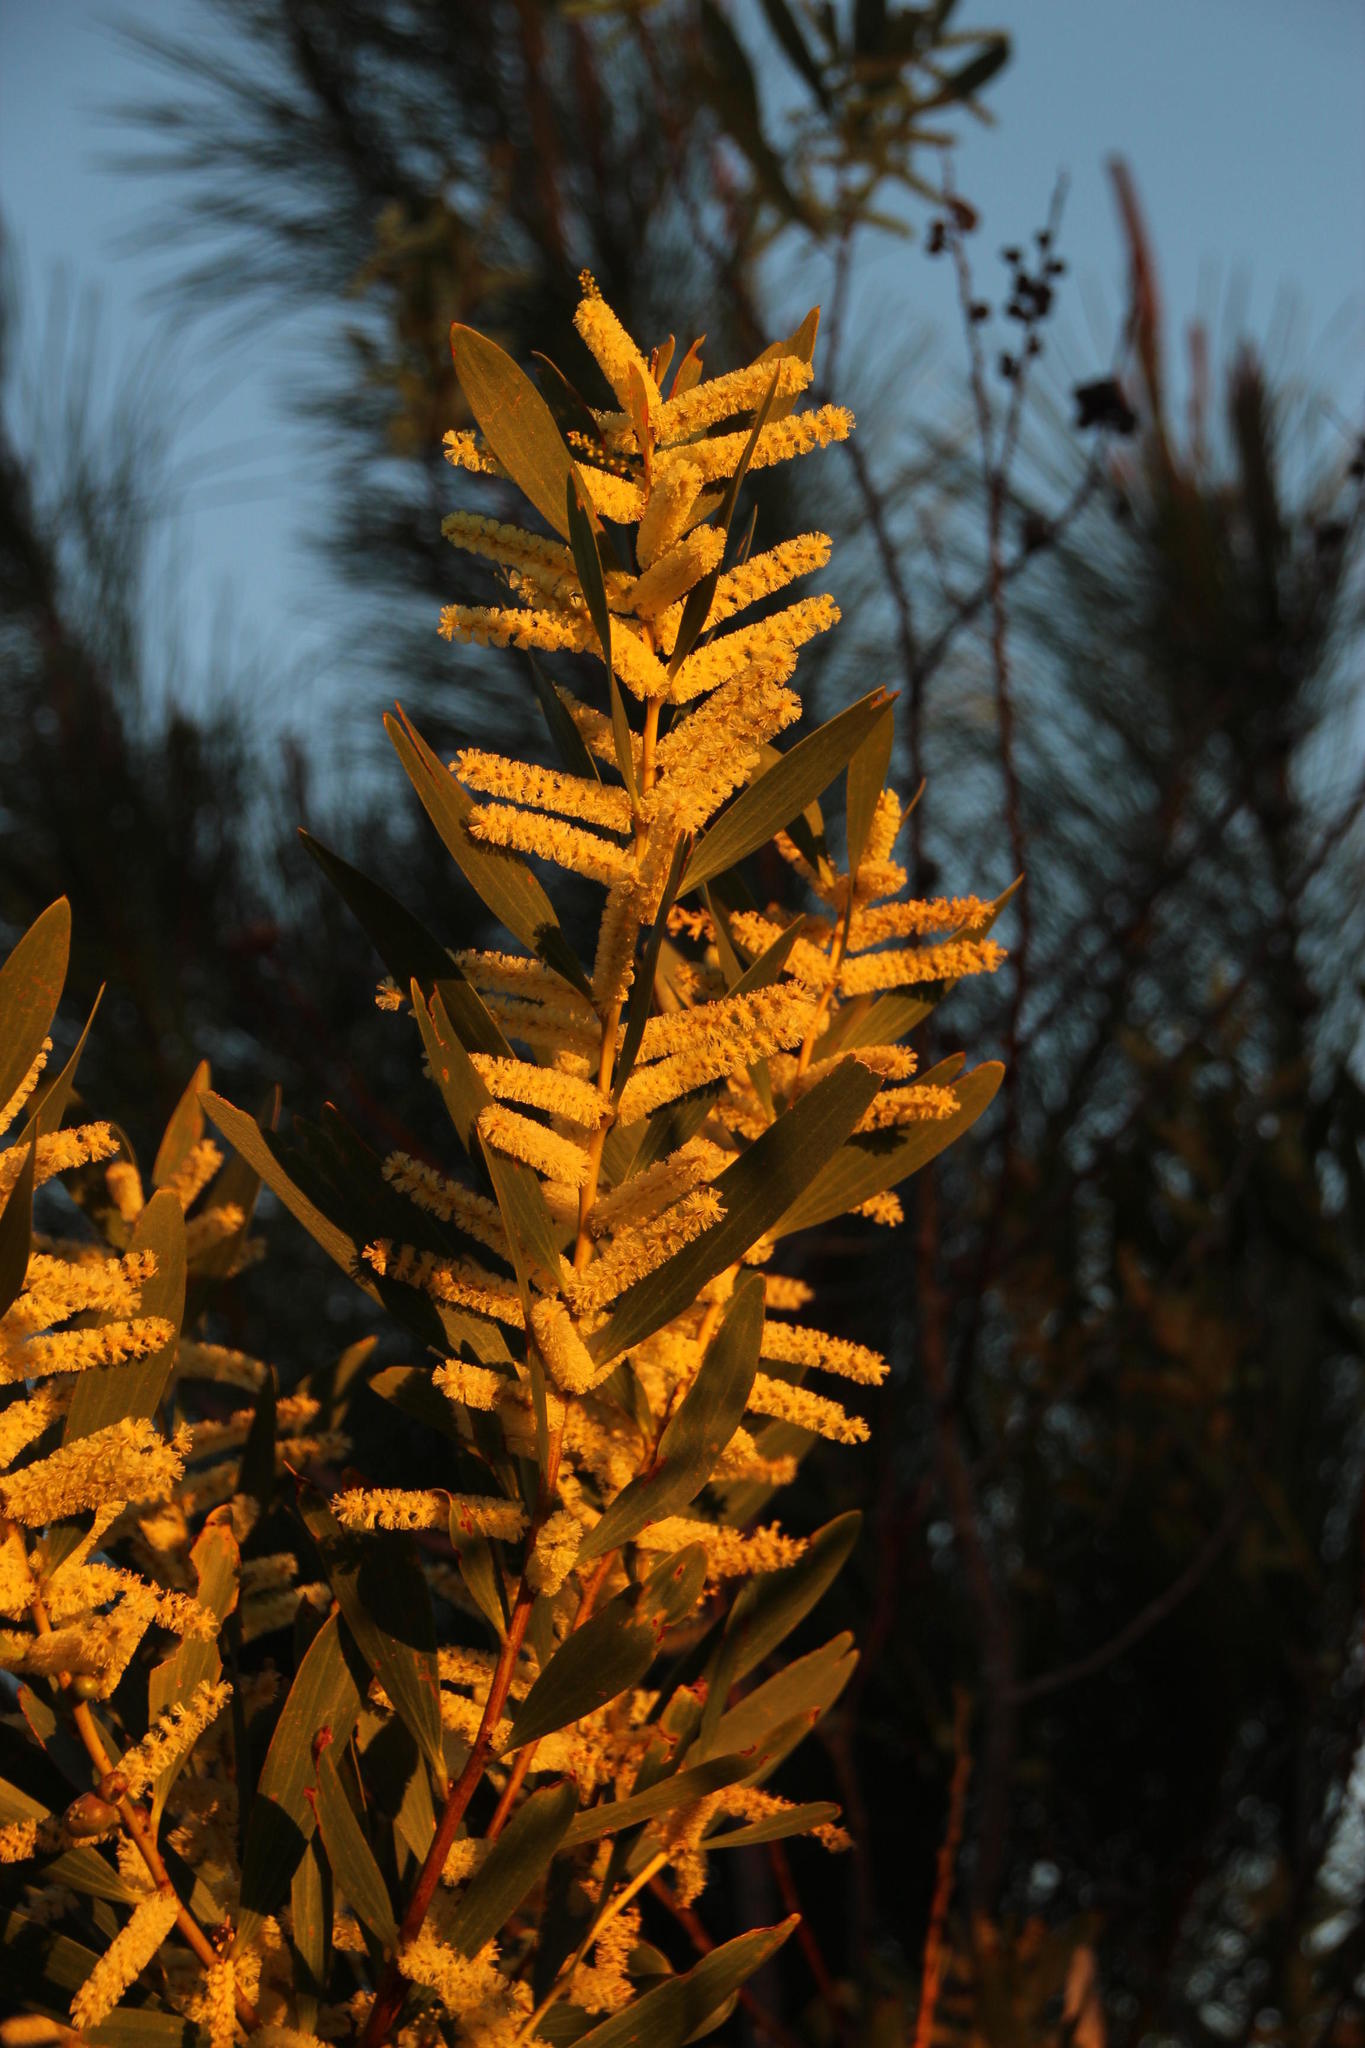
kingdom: Plantae
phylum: Tracheophyta
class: Magnoliopsida
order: Fabales
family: Fabaceae
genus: Acacia
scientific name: Acacia longifolia
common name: Sydney golden wattle
